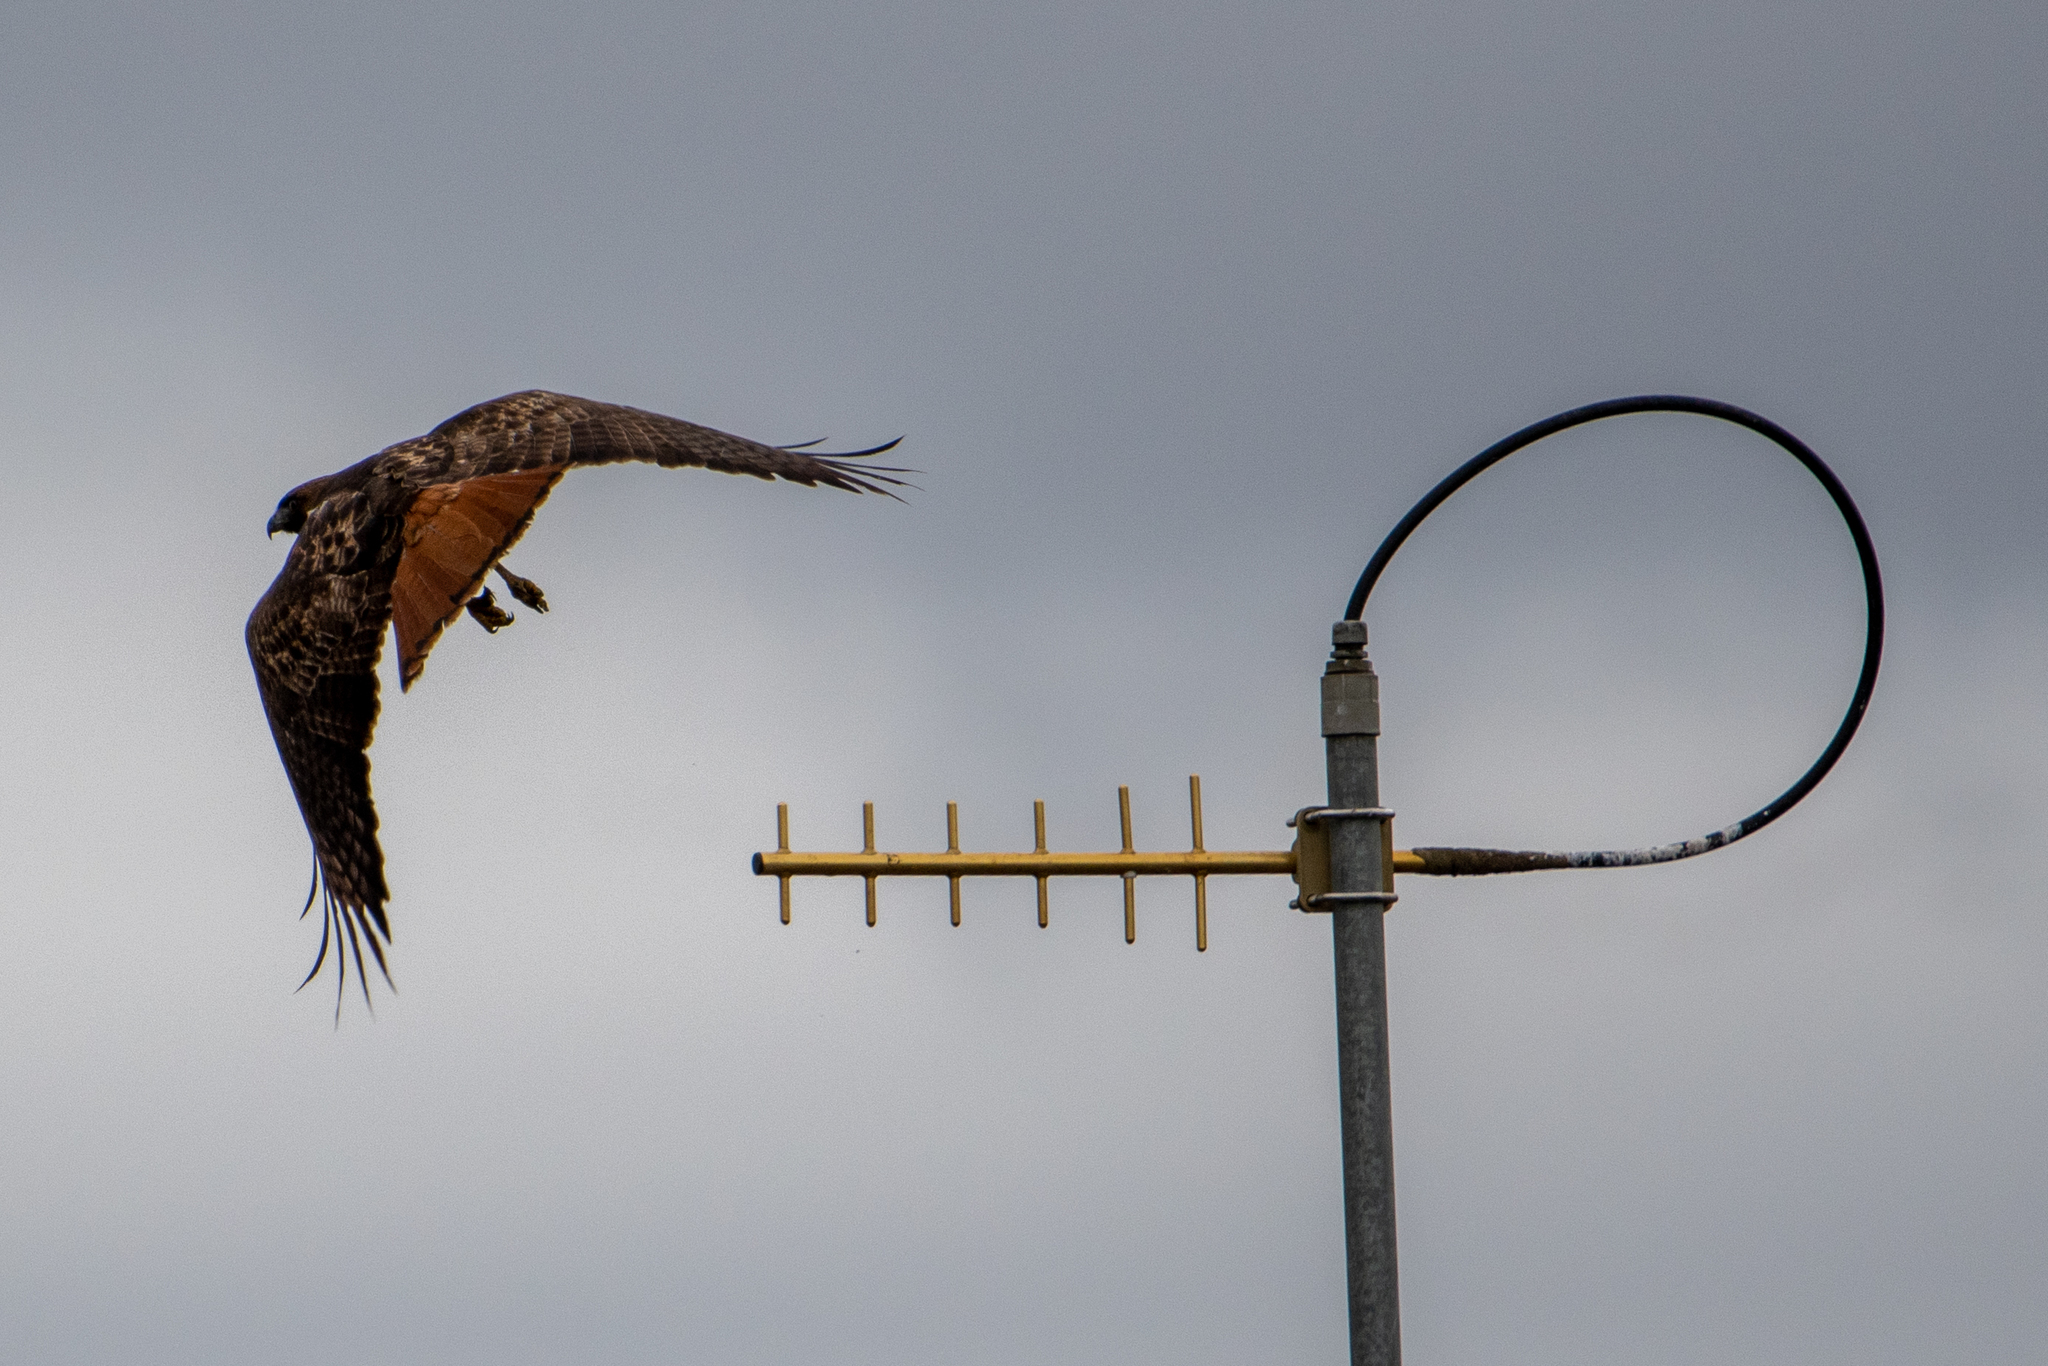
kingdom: Animalia
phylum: Chordata
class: Aves
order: Accipitriformes
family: Accipitridae
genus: Buteo
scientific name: Buteo jamaicensis
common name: Red-tailed hawk
